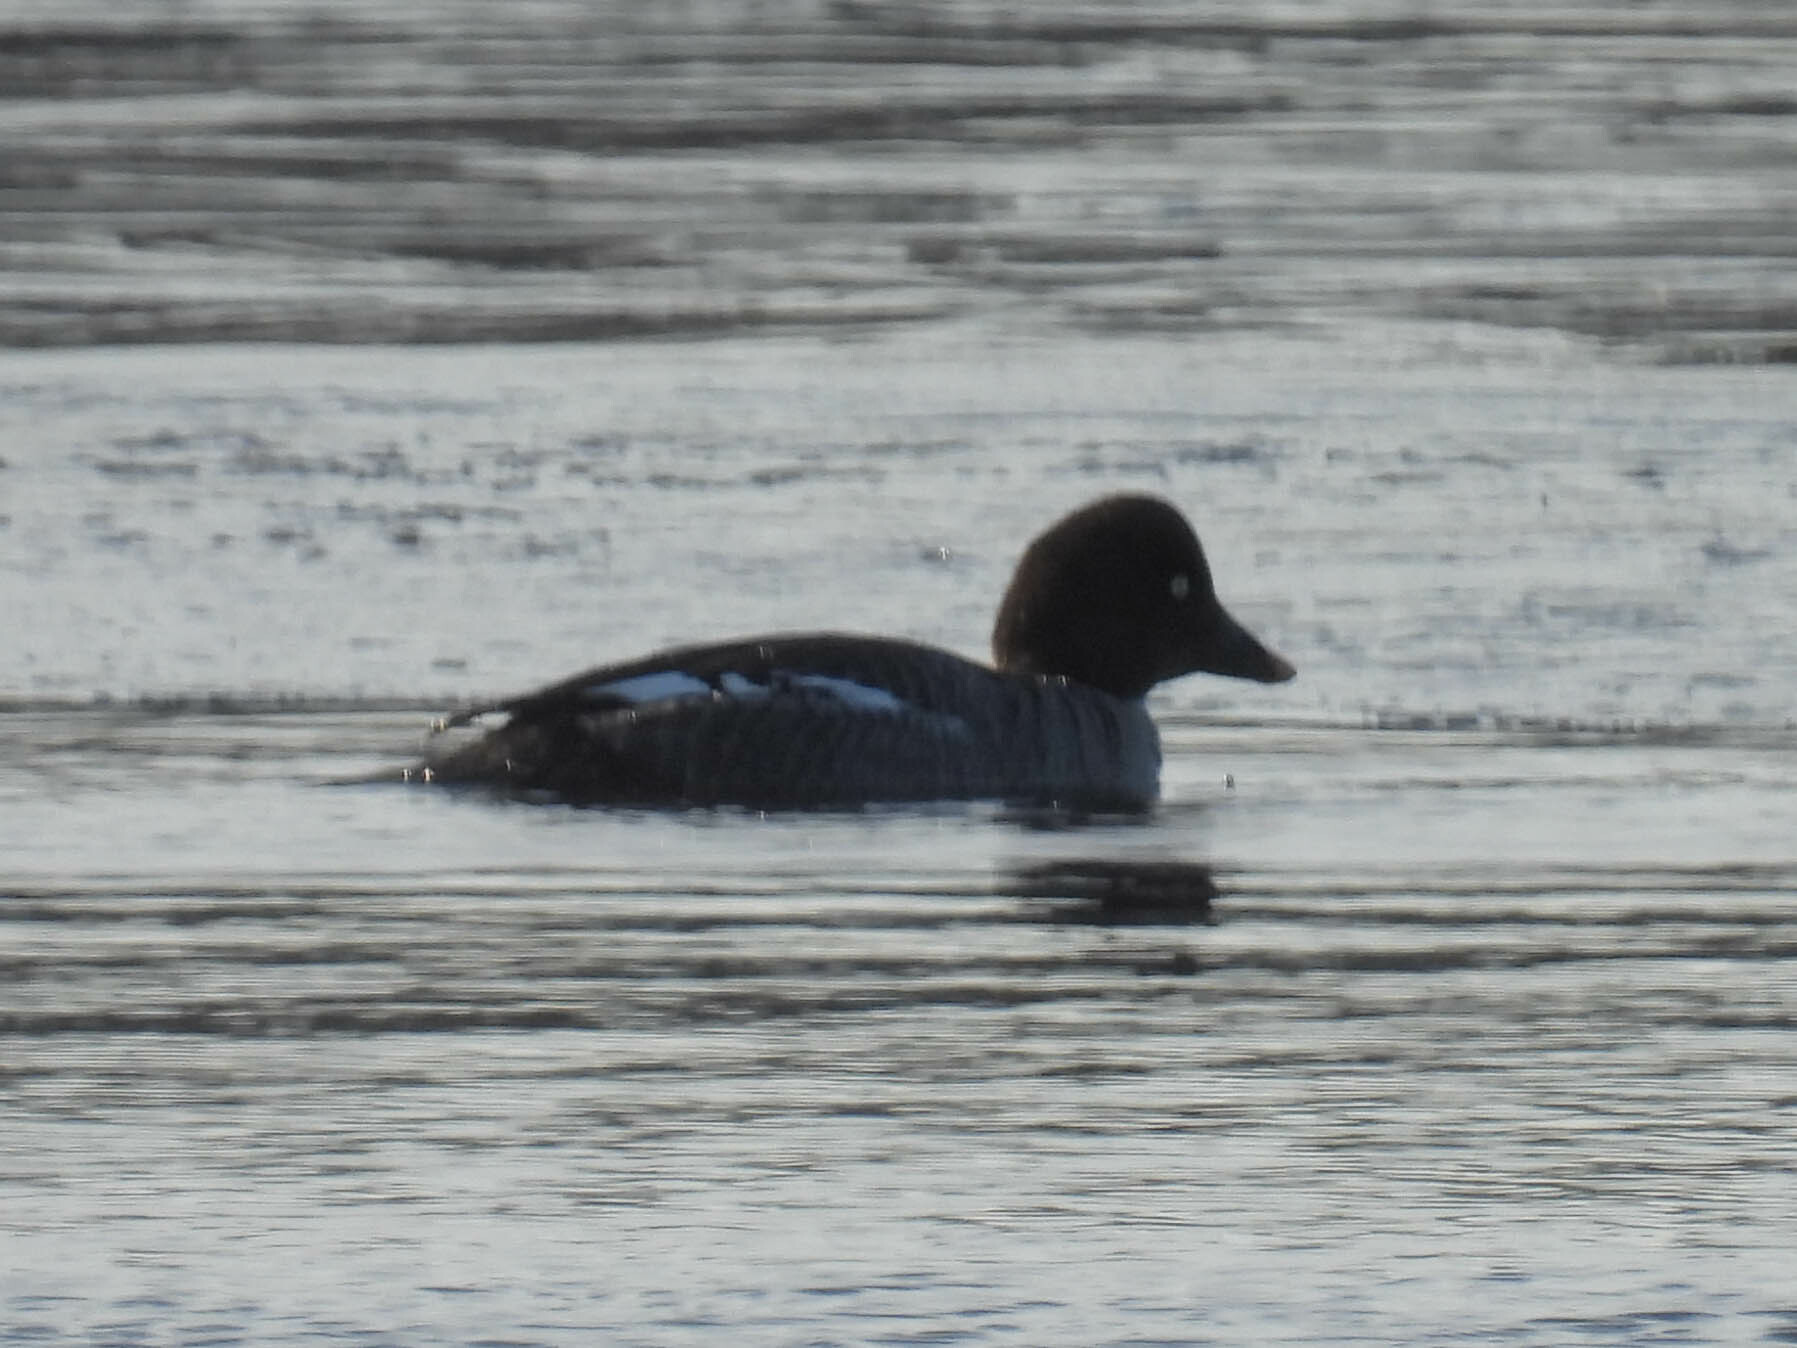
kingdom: Animalia
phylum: Chordata
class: Aves
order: Anseriformes
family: Anatidae
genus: Bucephala
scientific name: Bucephala clangula
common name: Common goldeneye
